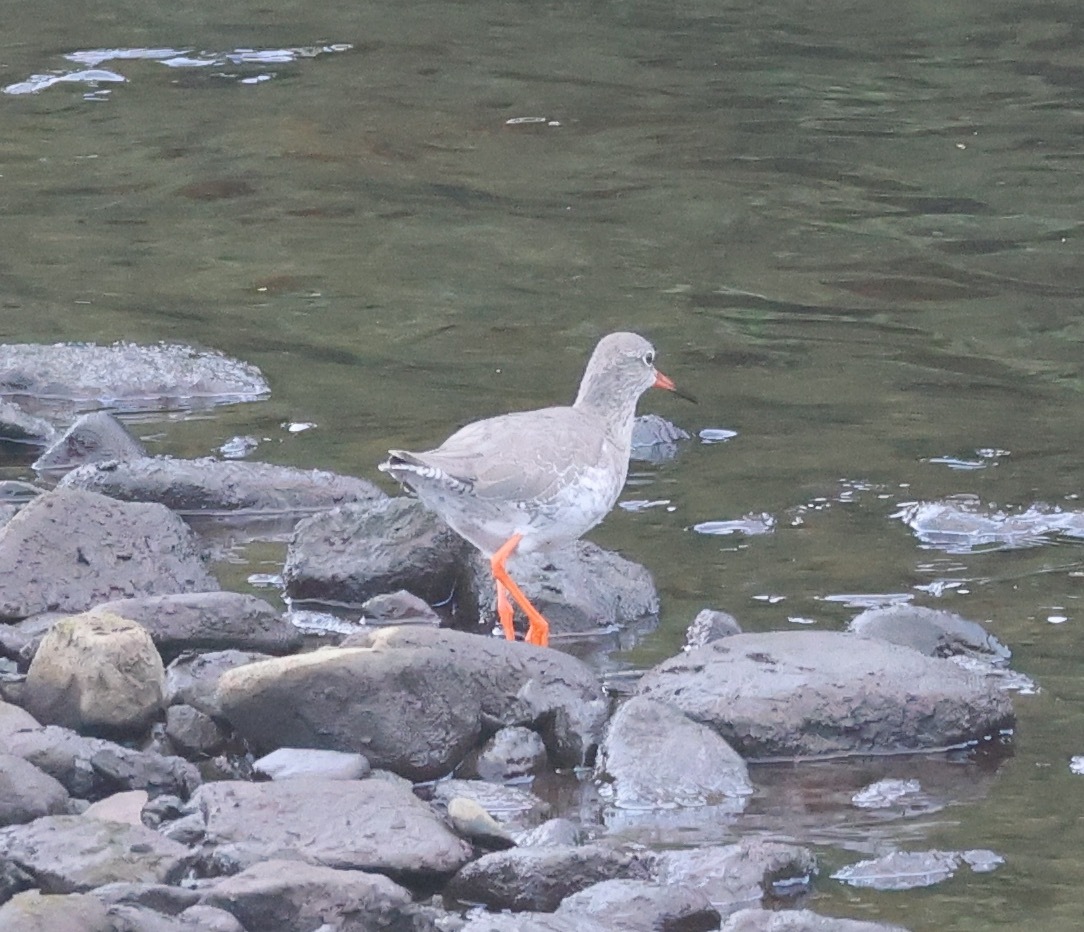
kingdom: Animalia
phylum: Chordata
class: Aves
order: Charadriiformes
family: Scolopacidae
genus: Tringa
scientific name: Tringa totanus
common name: Common redshank
